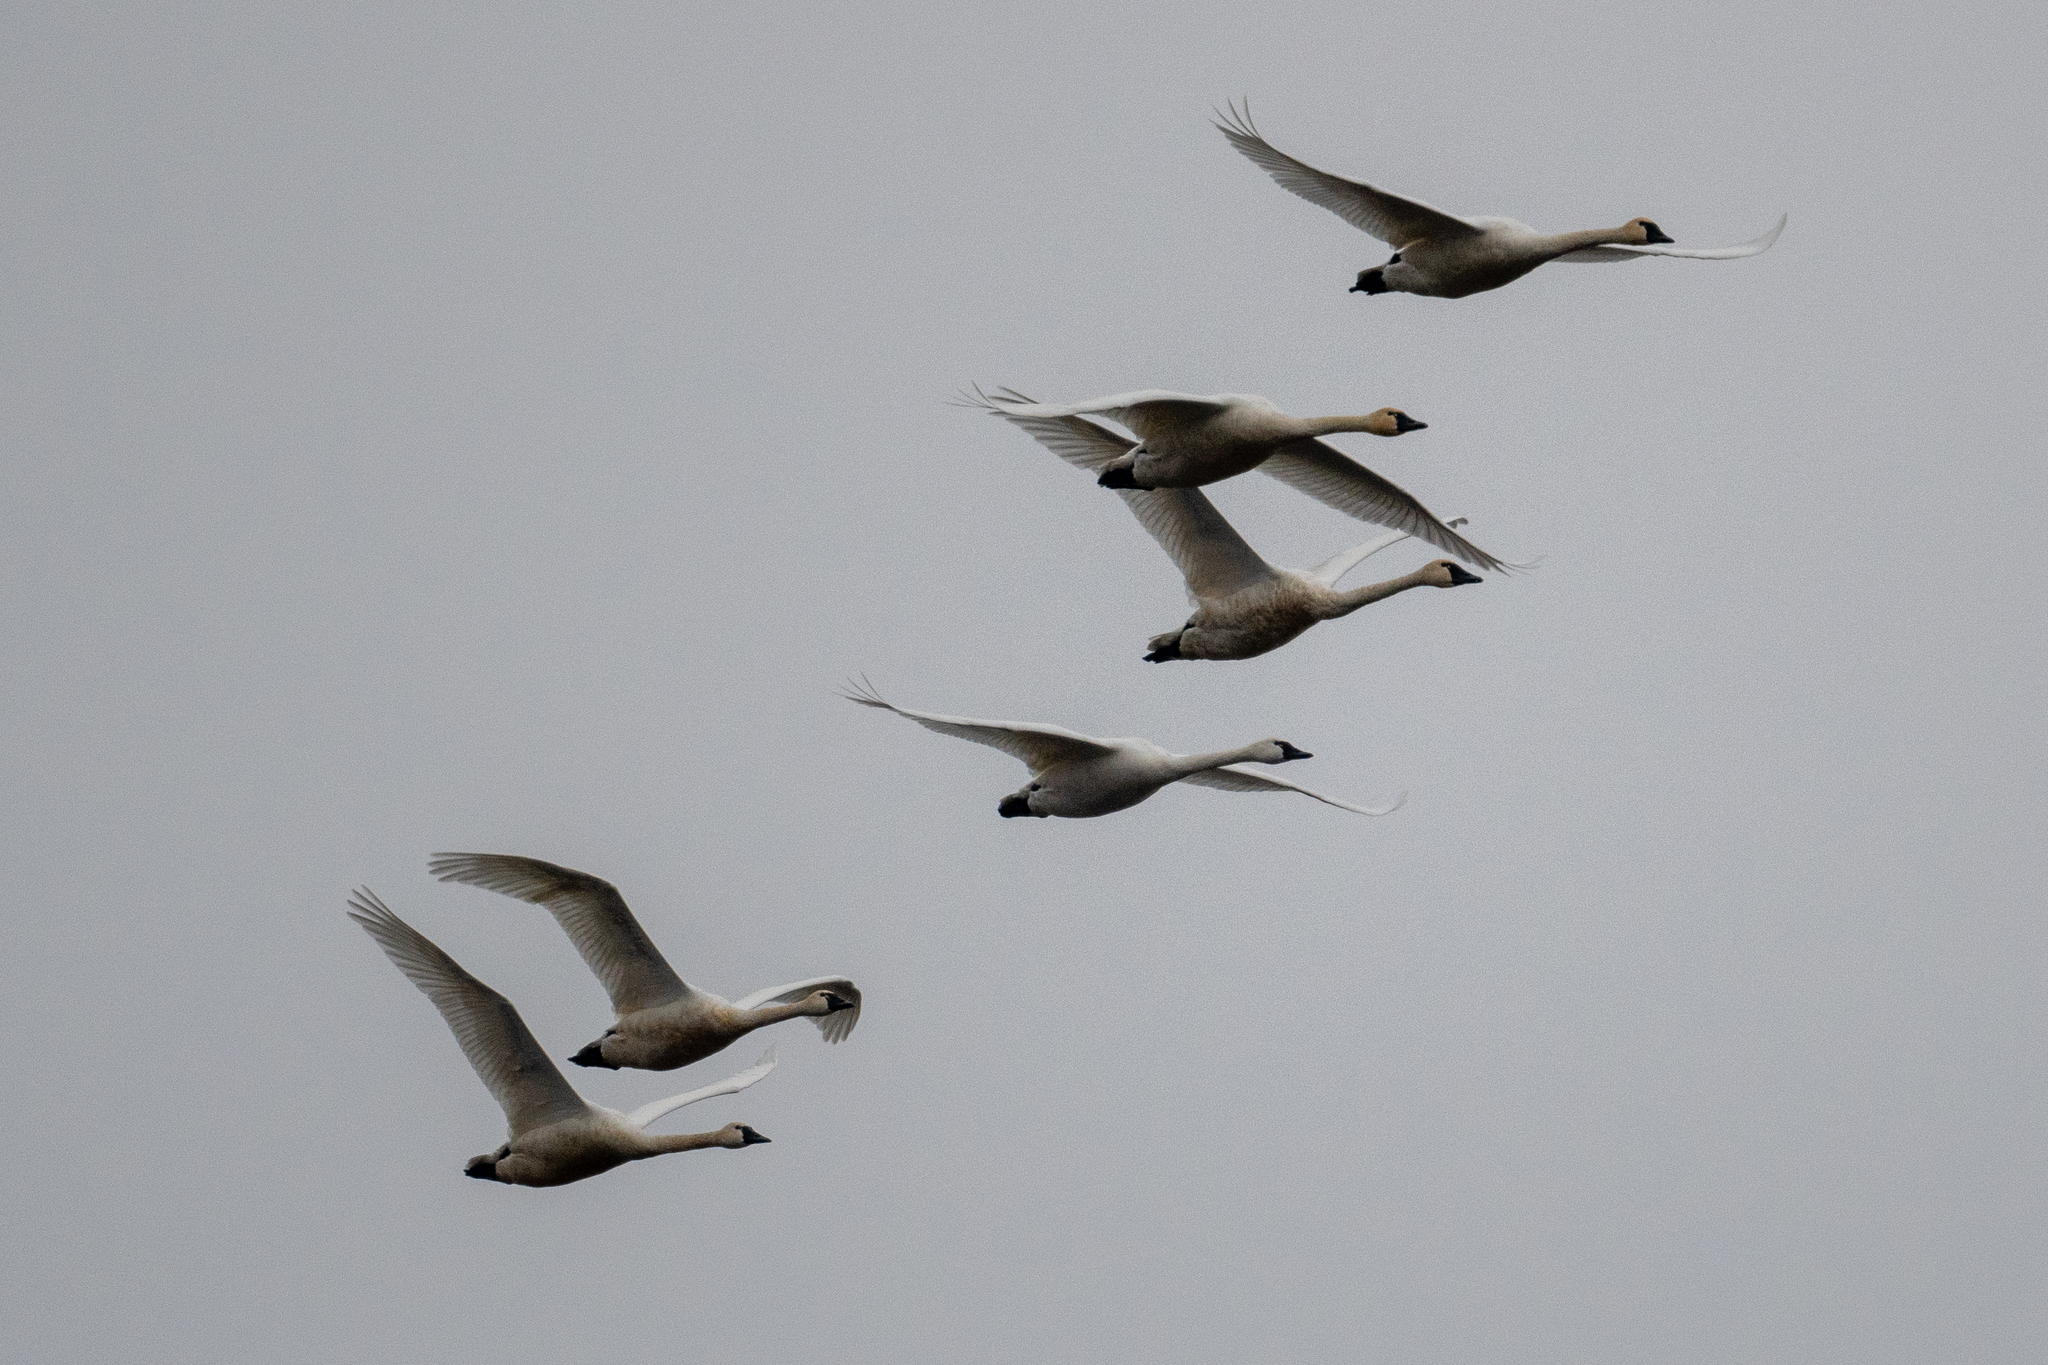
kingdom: Animalia
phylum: Chordata
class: Aves
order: Anseriformes
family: Anatidae
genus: Cygnus
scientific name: Cygnus columbianus
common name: Tundra swan
